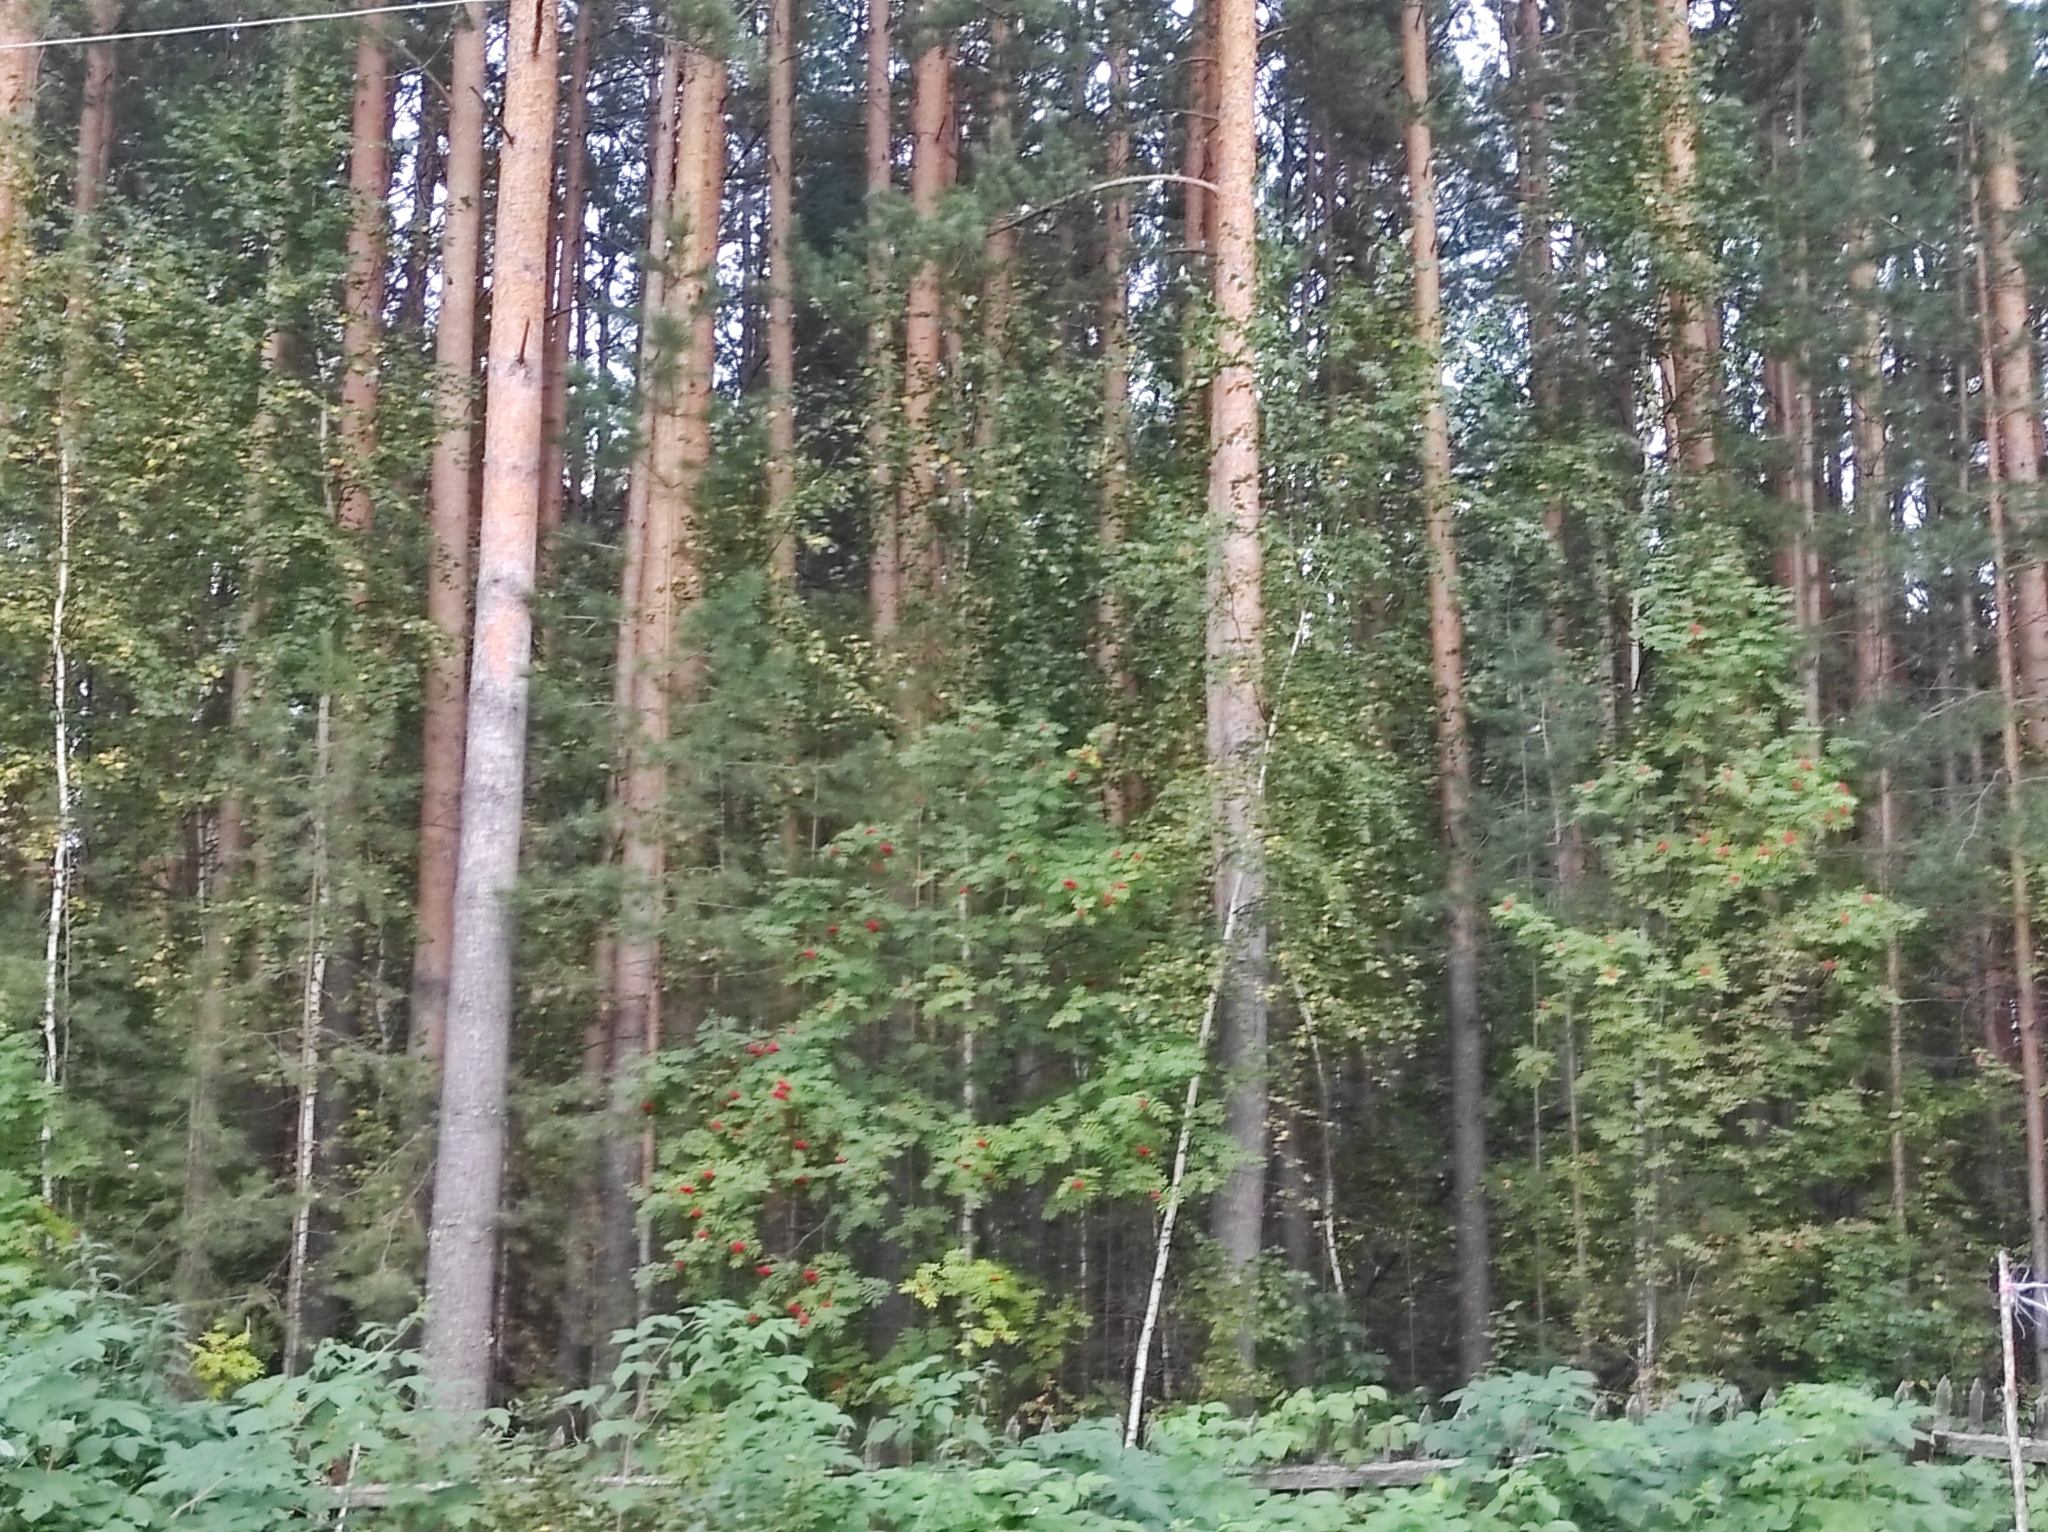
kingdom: Plantae
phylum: Tracheophyta
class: Pinopsida
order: Pinales
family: Pinaceae
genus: Pinus
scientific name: Pinus sylvestris
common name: Scots pine
